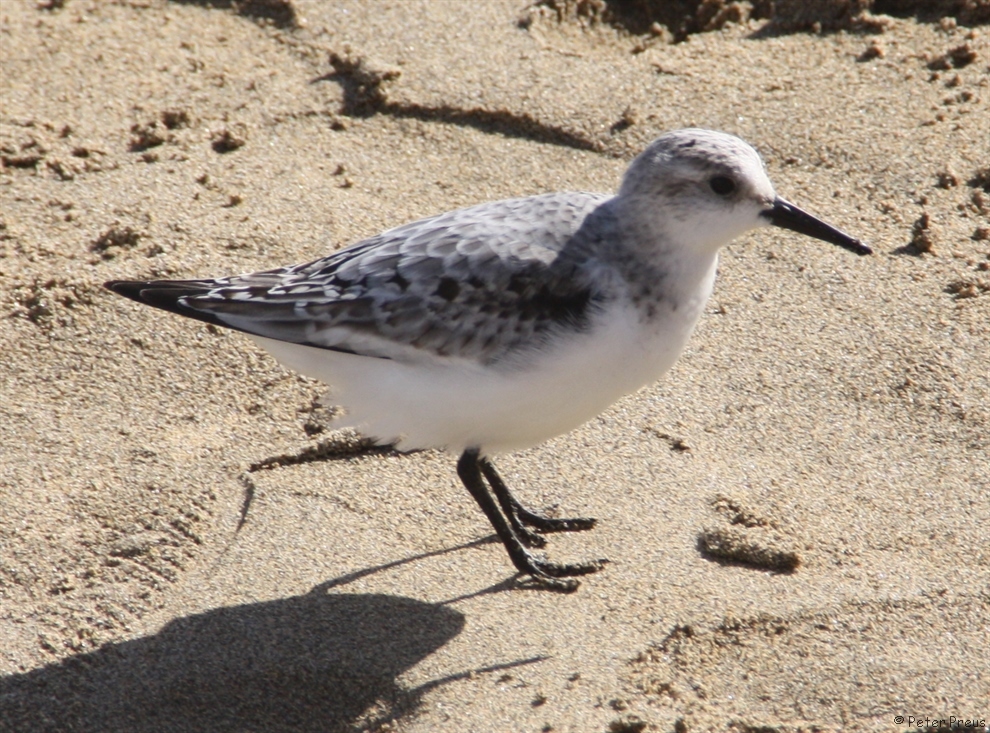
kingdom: Animalia
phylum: Chordata
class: Aves
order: Charadriiformes
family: Scolopacidae
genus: Calidris
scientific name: Calidris alba
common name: Sanderling
